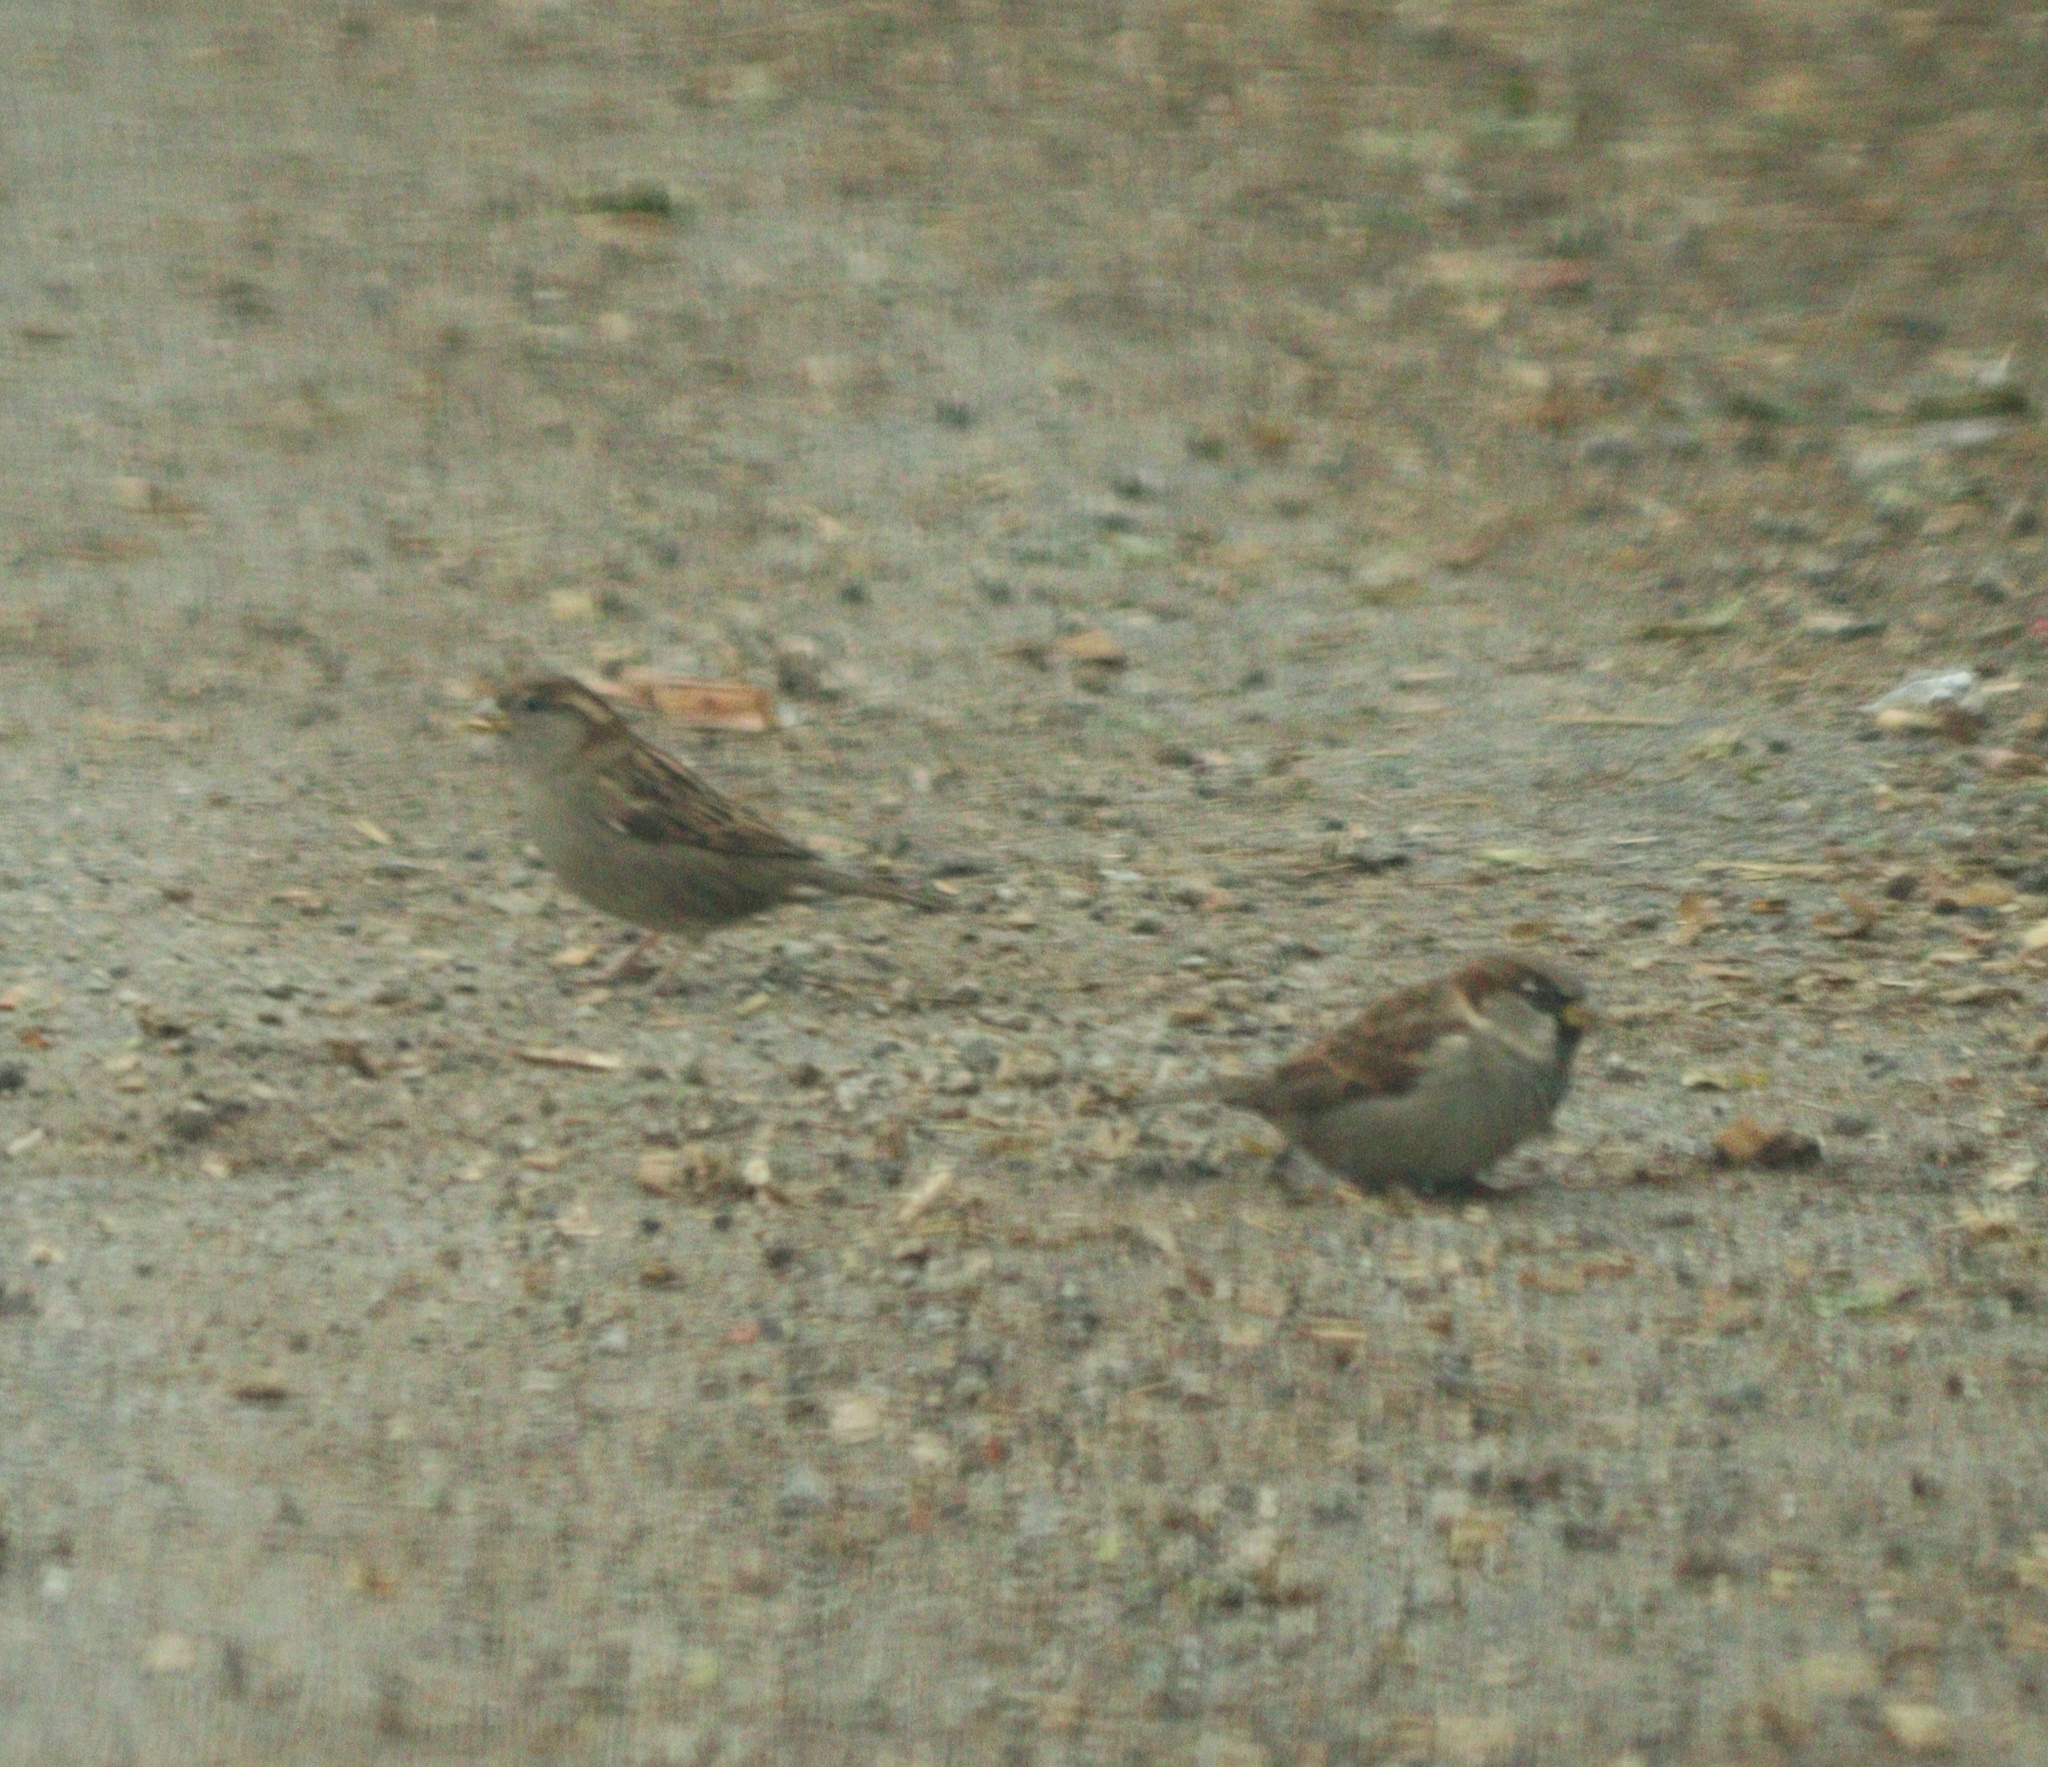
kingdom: Animalia
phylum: Chordata
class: Aves
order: Passeriformes
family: Passeridae
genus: Passer
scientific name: Passer domesticus
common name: House sparrow
